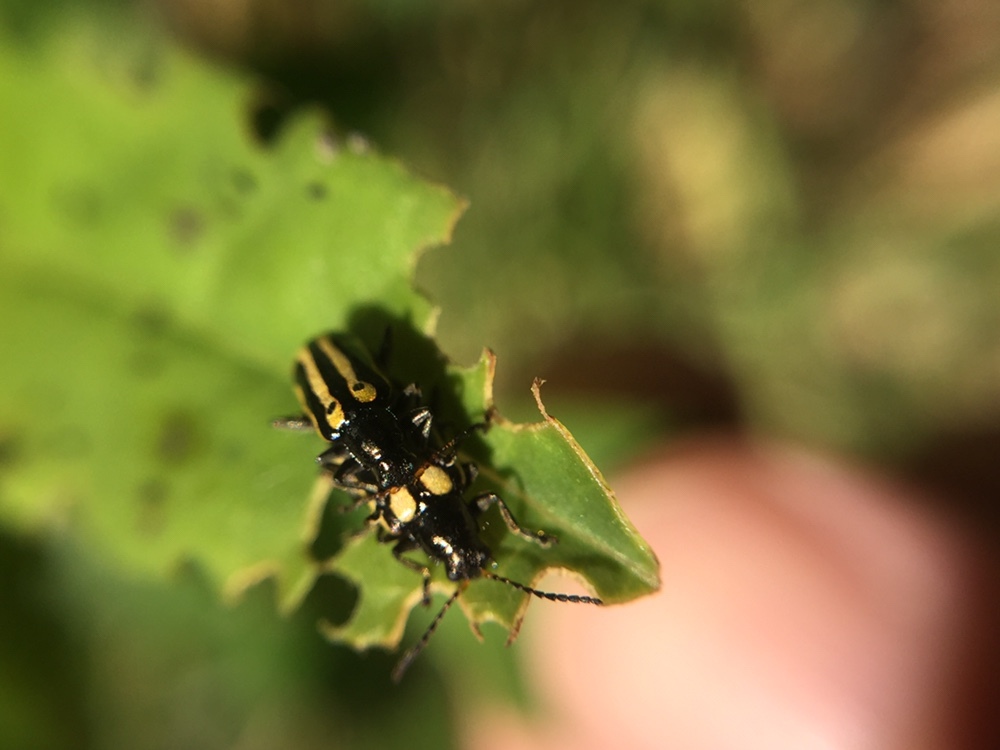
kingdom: Animalia
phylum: Arthropoda
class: Insecta
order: Coleoptera
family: Chrysomelidae
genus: Agasicles
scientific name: Agasicles hygrophila
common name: Alligatorweed flea beetle
